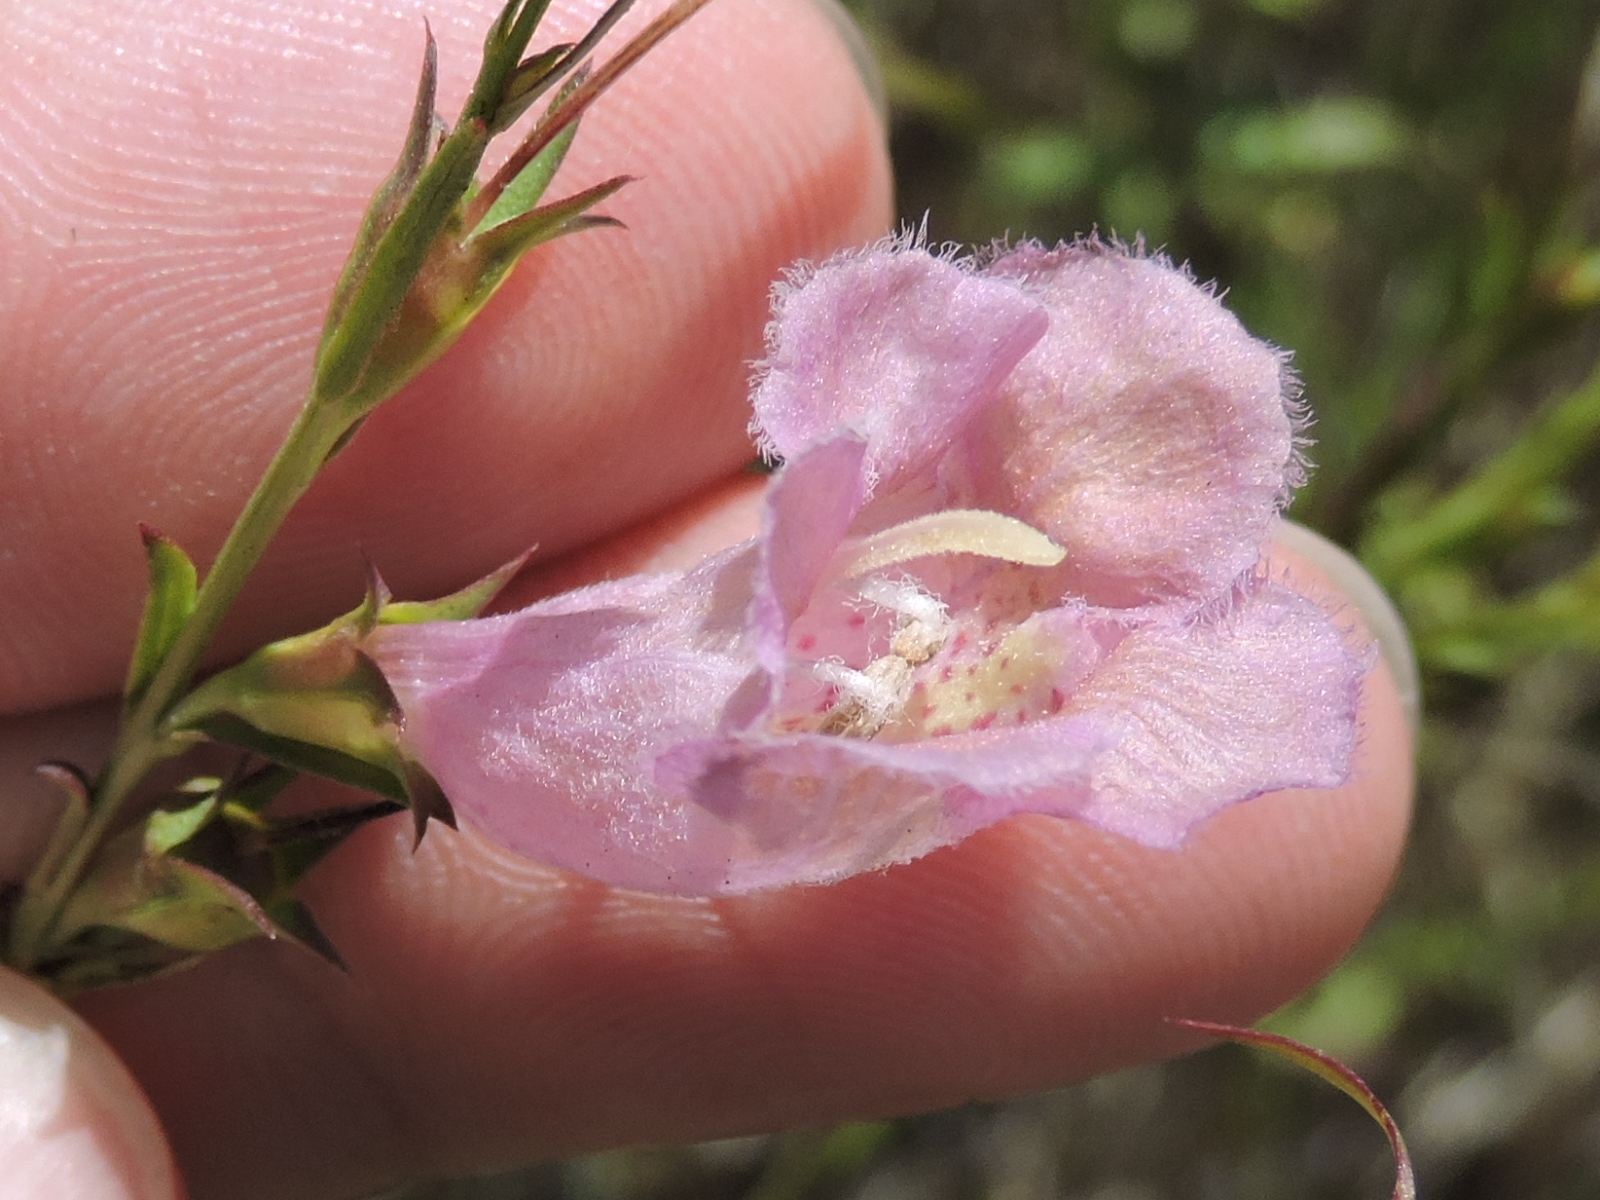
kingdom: Plantae
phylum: Tracheophyta
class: Magnoliopsida
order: Lamiales
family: Orobanchaceae
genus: Agalinis
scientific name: Agalinis heterophylla
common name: Prairie agalinis
